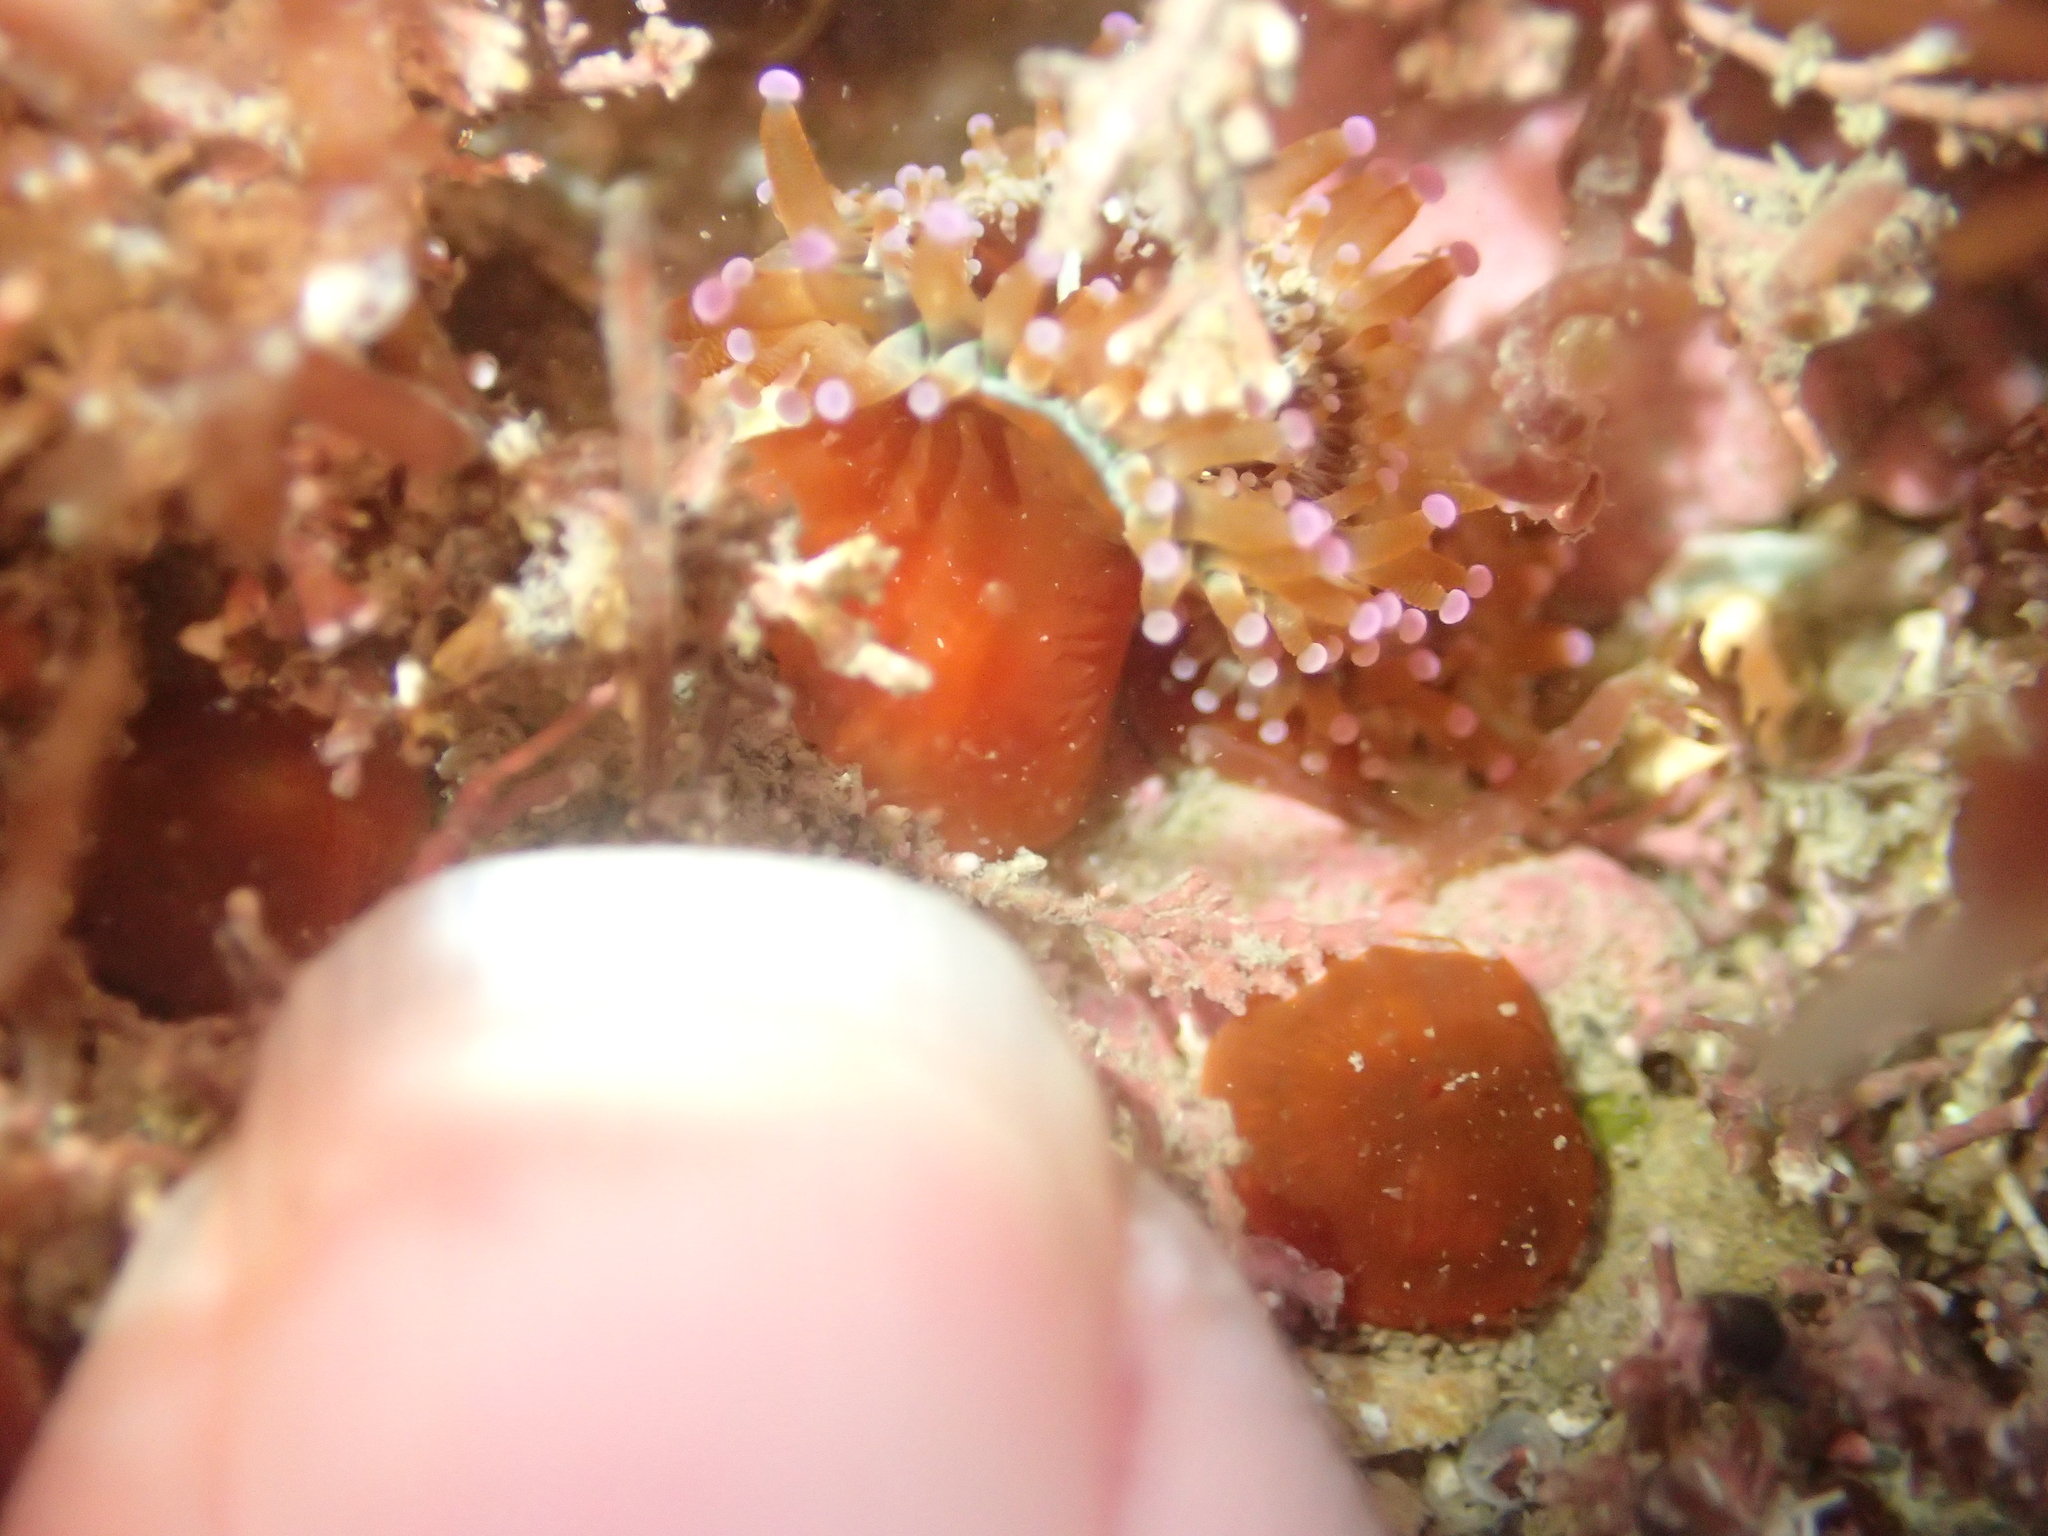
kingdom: Animalia
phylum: Cnidaria
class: Anthozoa
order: Corallimorpharia
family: Corallimorphidae
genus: Corynactis
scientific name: Corynactis australis
